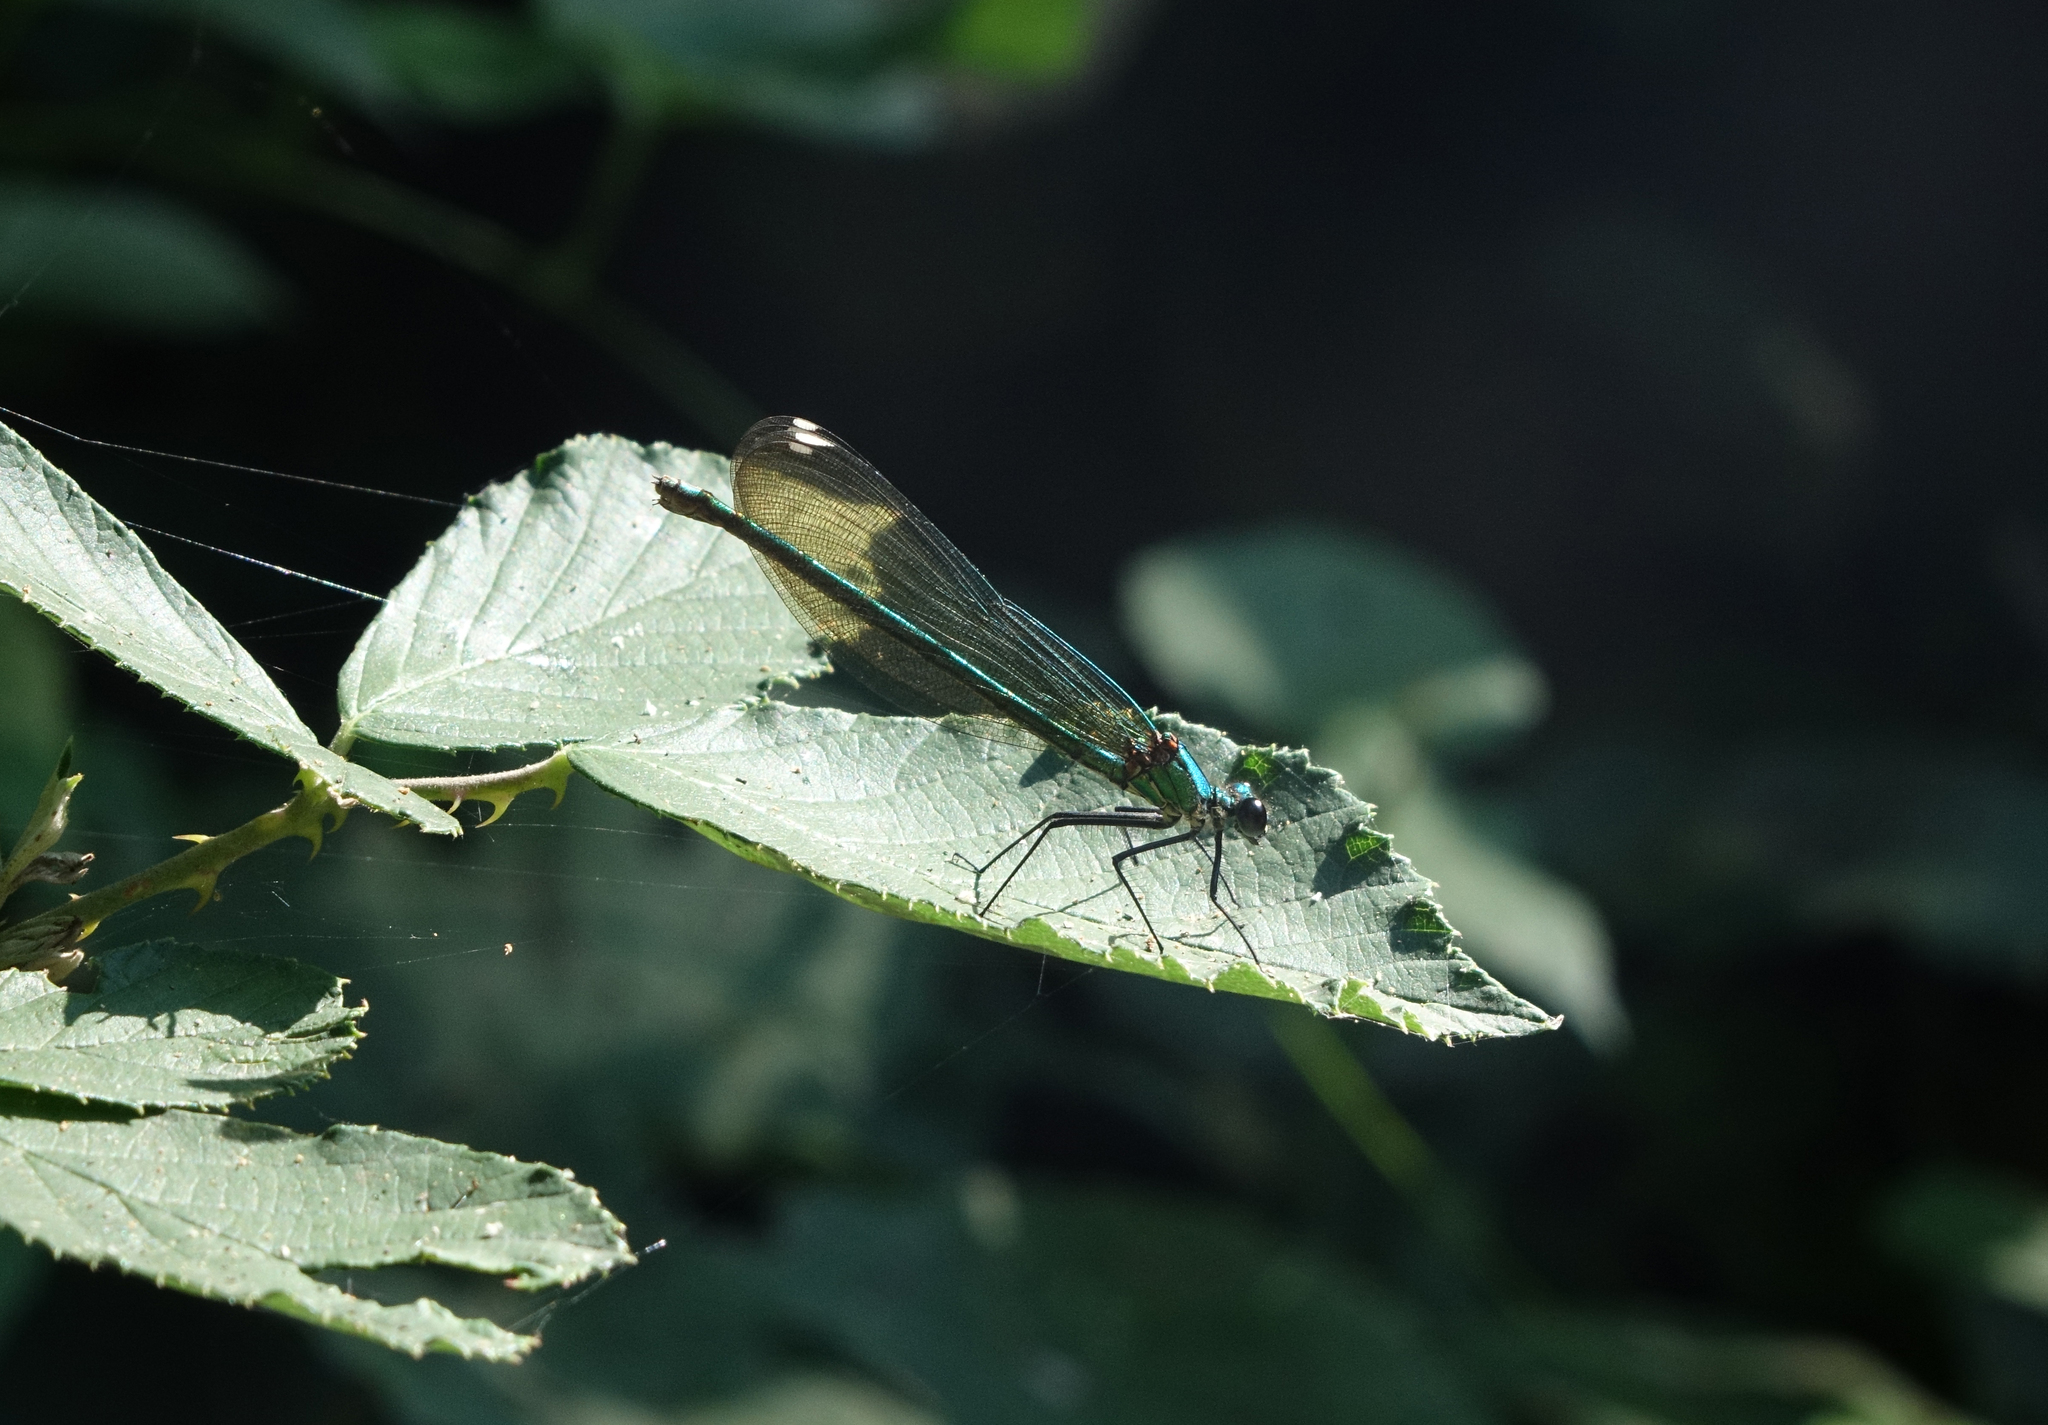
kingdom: Animalia
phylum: Arthropoda
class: Insecta
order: Odonata
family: Calopterygidae
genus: Calopteryx
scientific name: Calopteryx splendens
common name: Banded demoiselle
